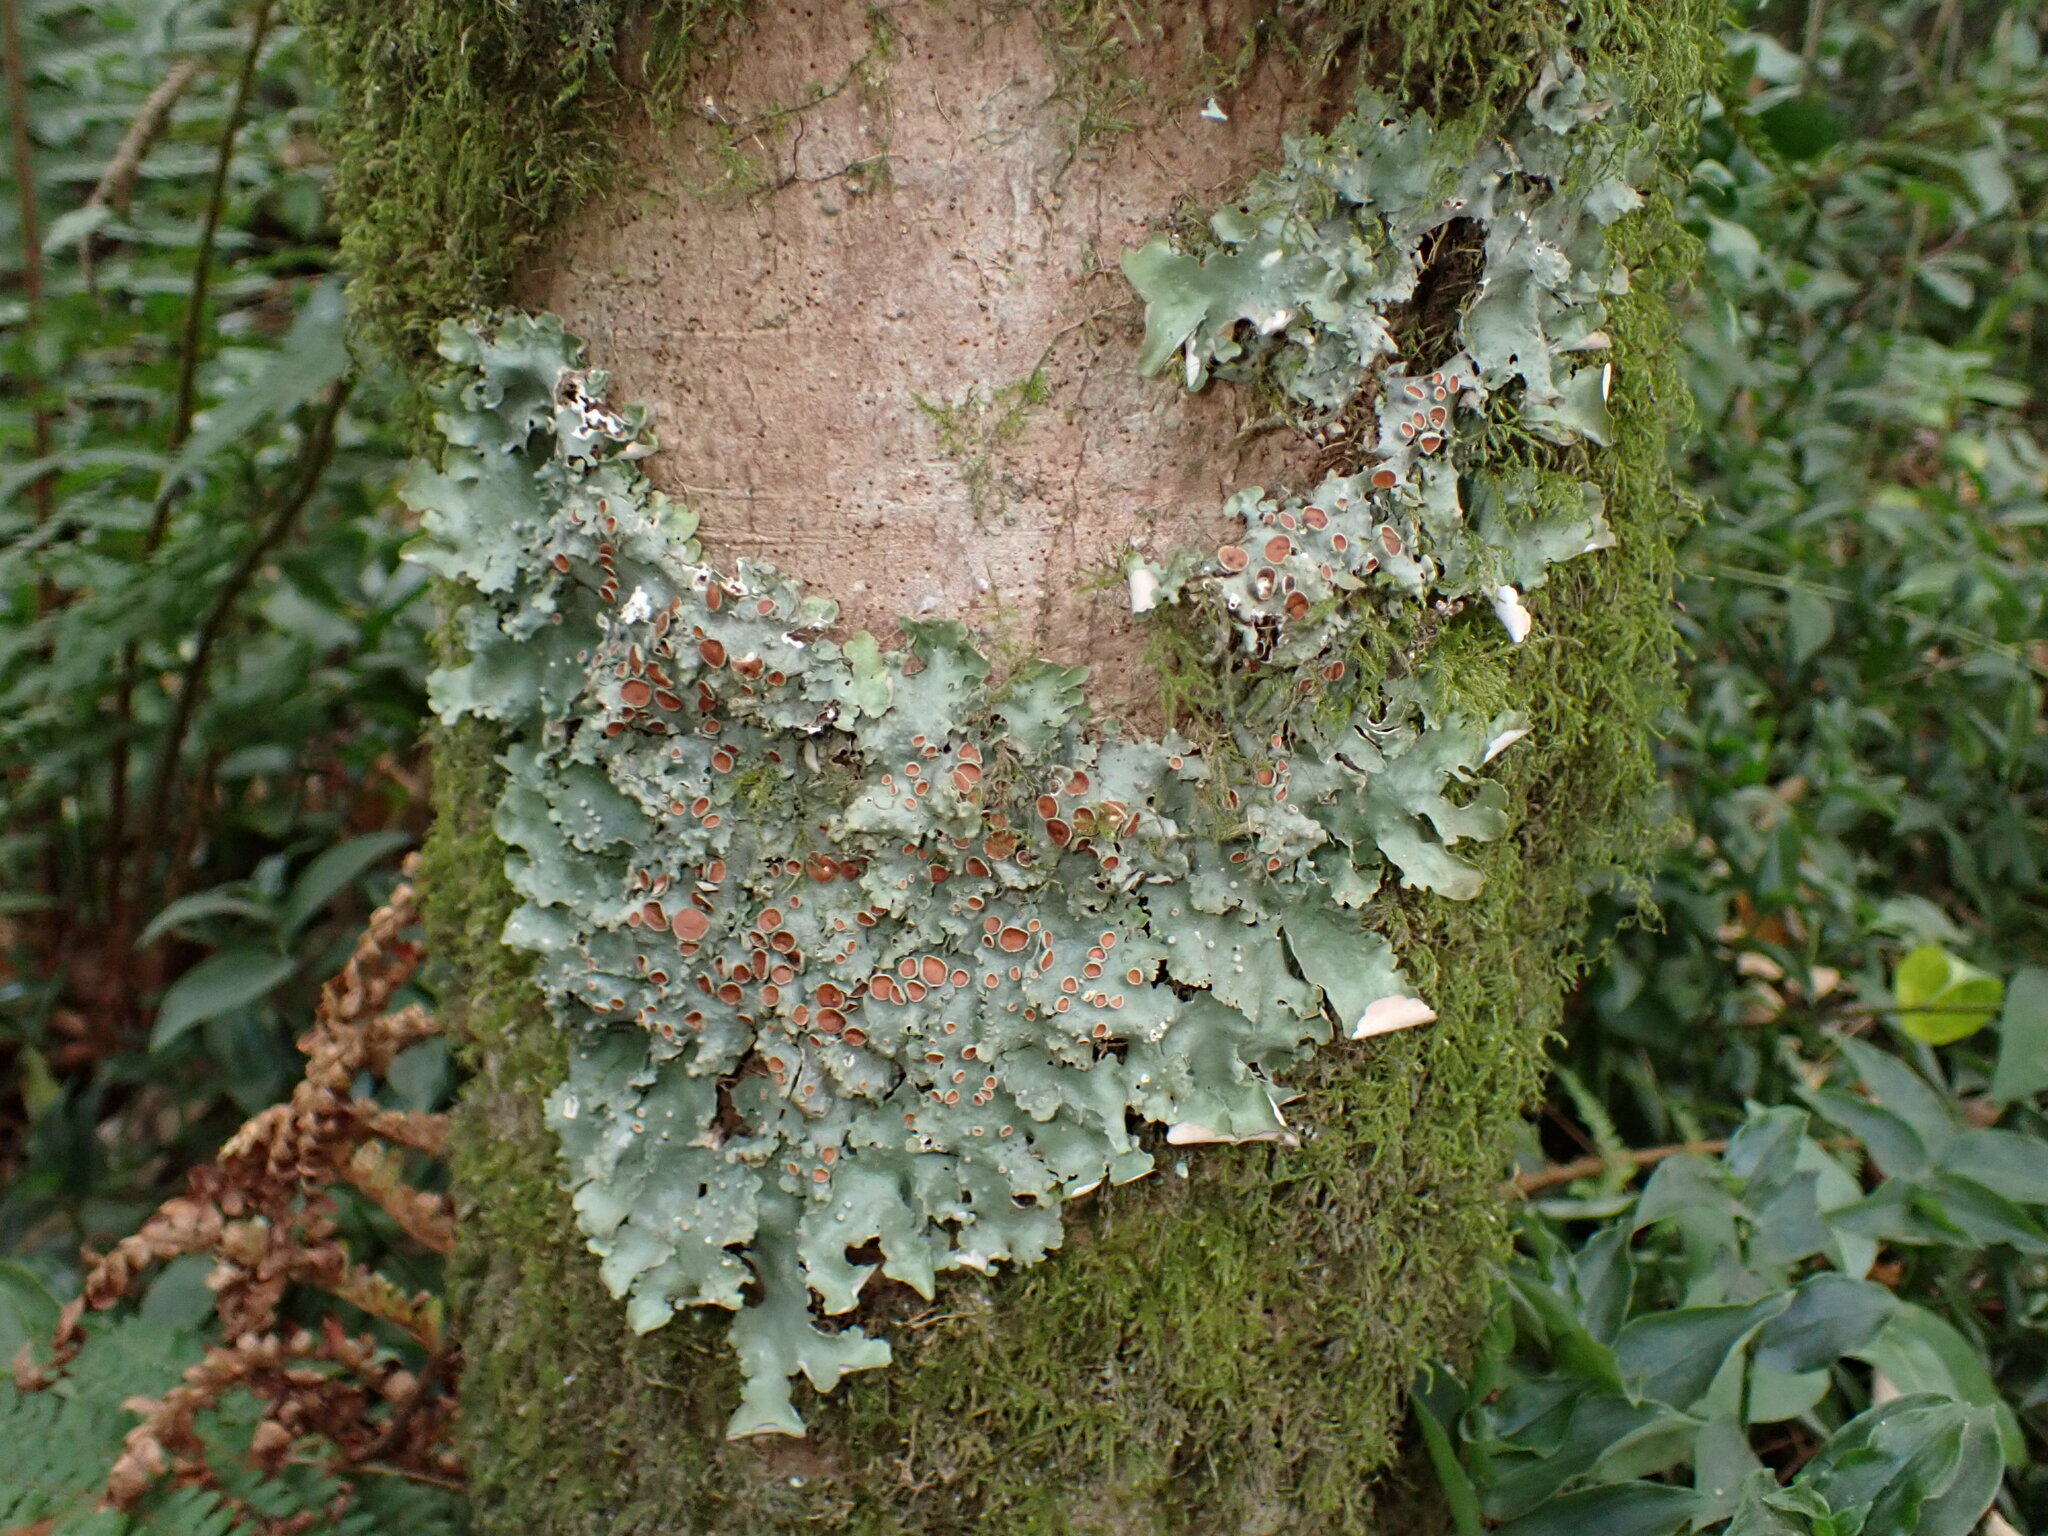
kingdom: Fungi
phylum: Ascomycota
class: Lecanoromycetes
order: Peltigerales
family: Lobariaceae
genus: Ricasolia
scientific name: Ricasolia virens
